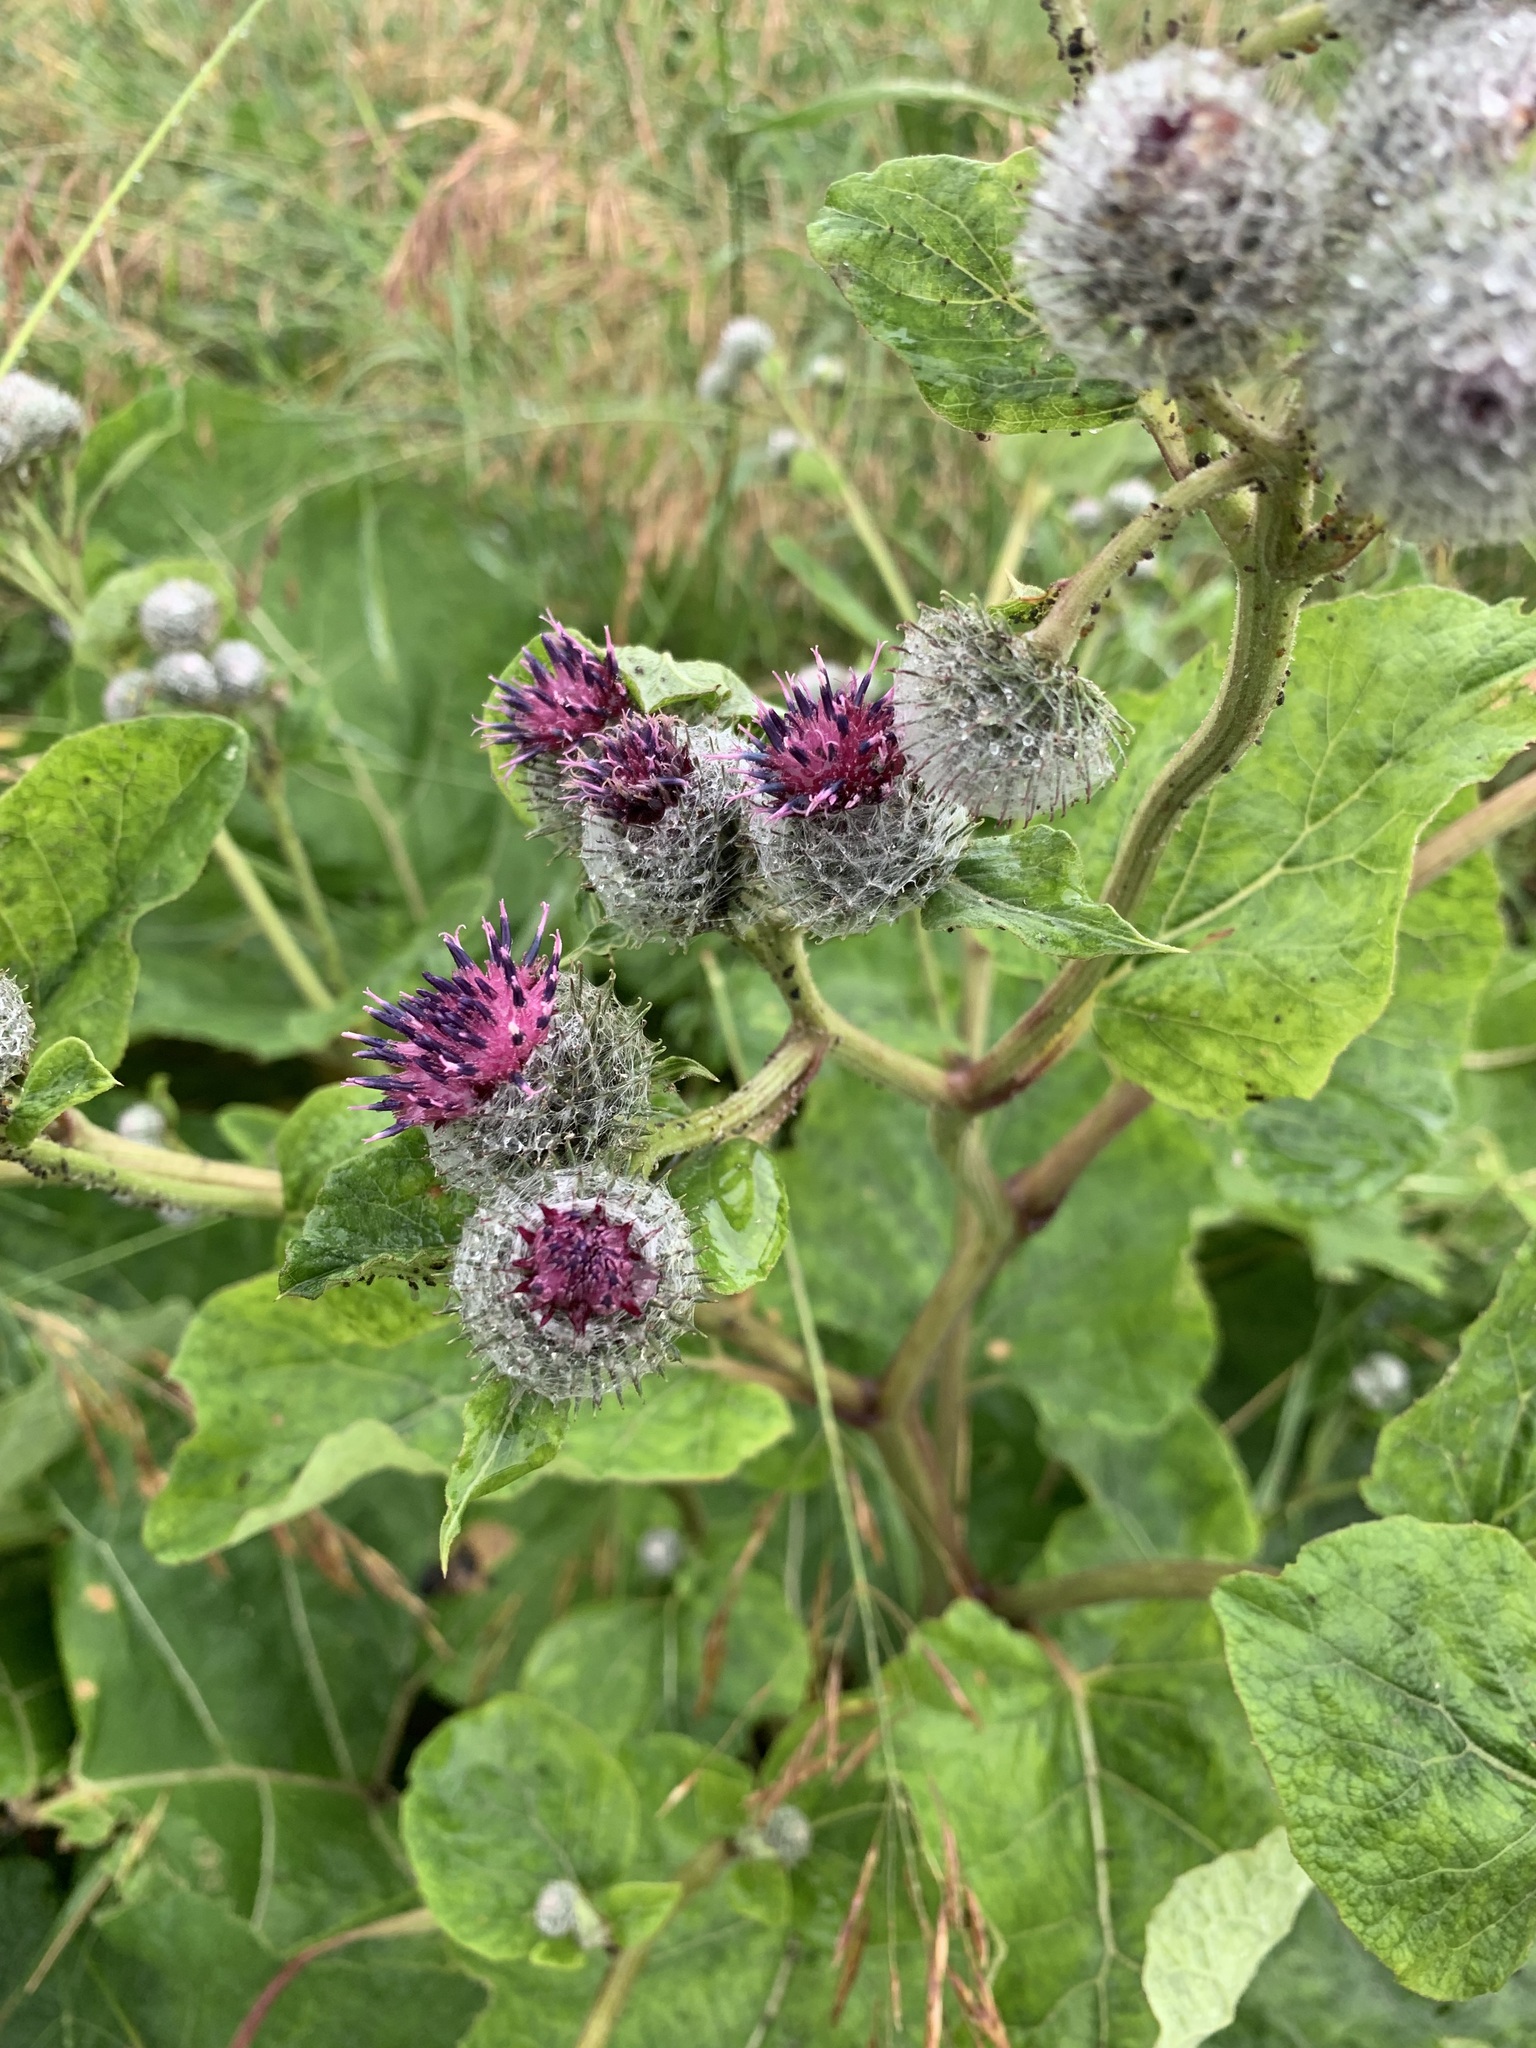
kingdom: Plantae
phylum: Tracheophyta
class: Magnoliopsida
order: Asterales
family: Asteraceae
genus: Arctium
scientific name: Arctium tomentosum
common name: Woolly burdock
